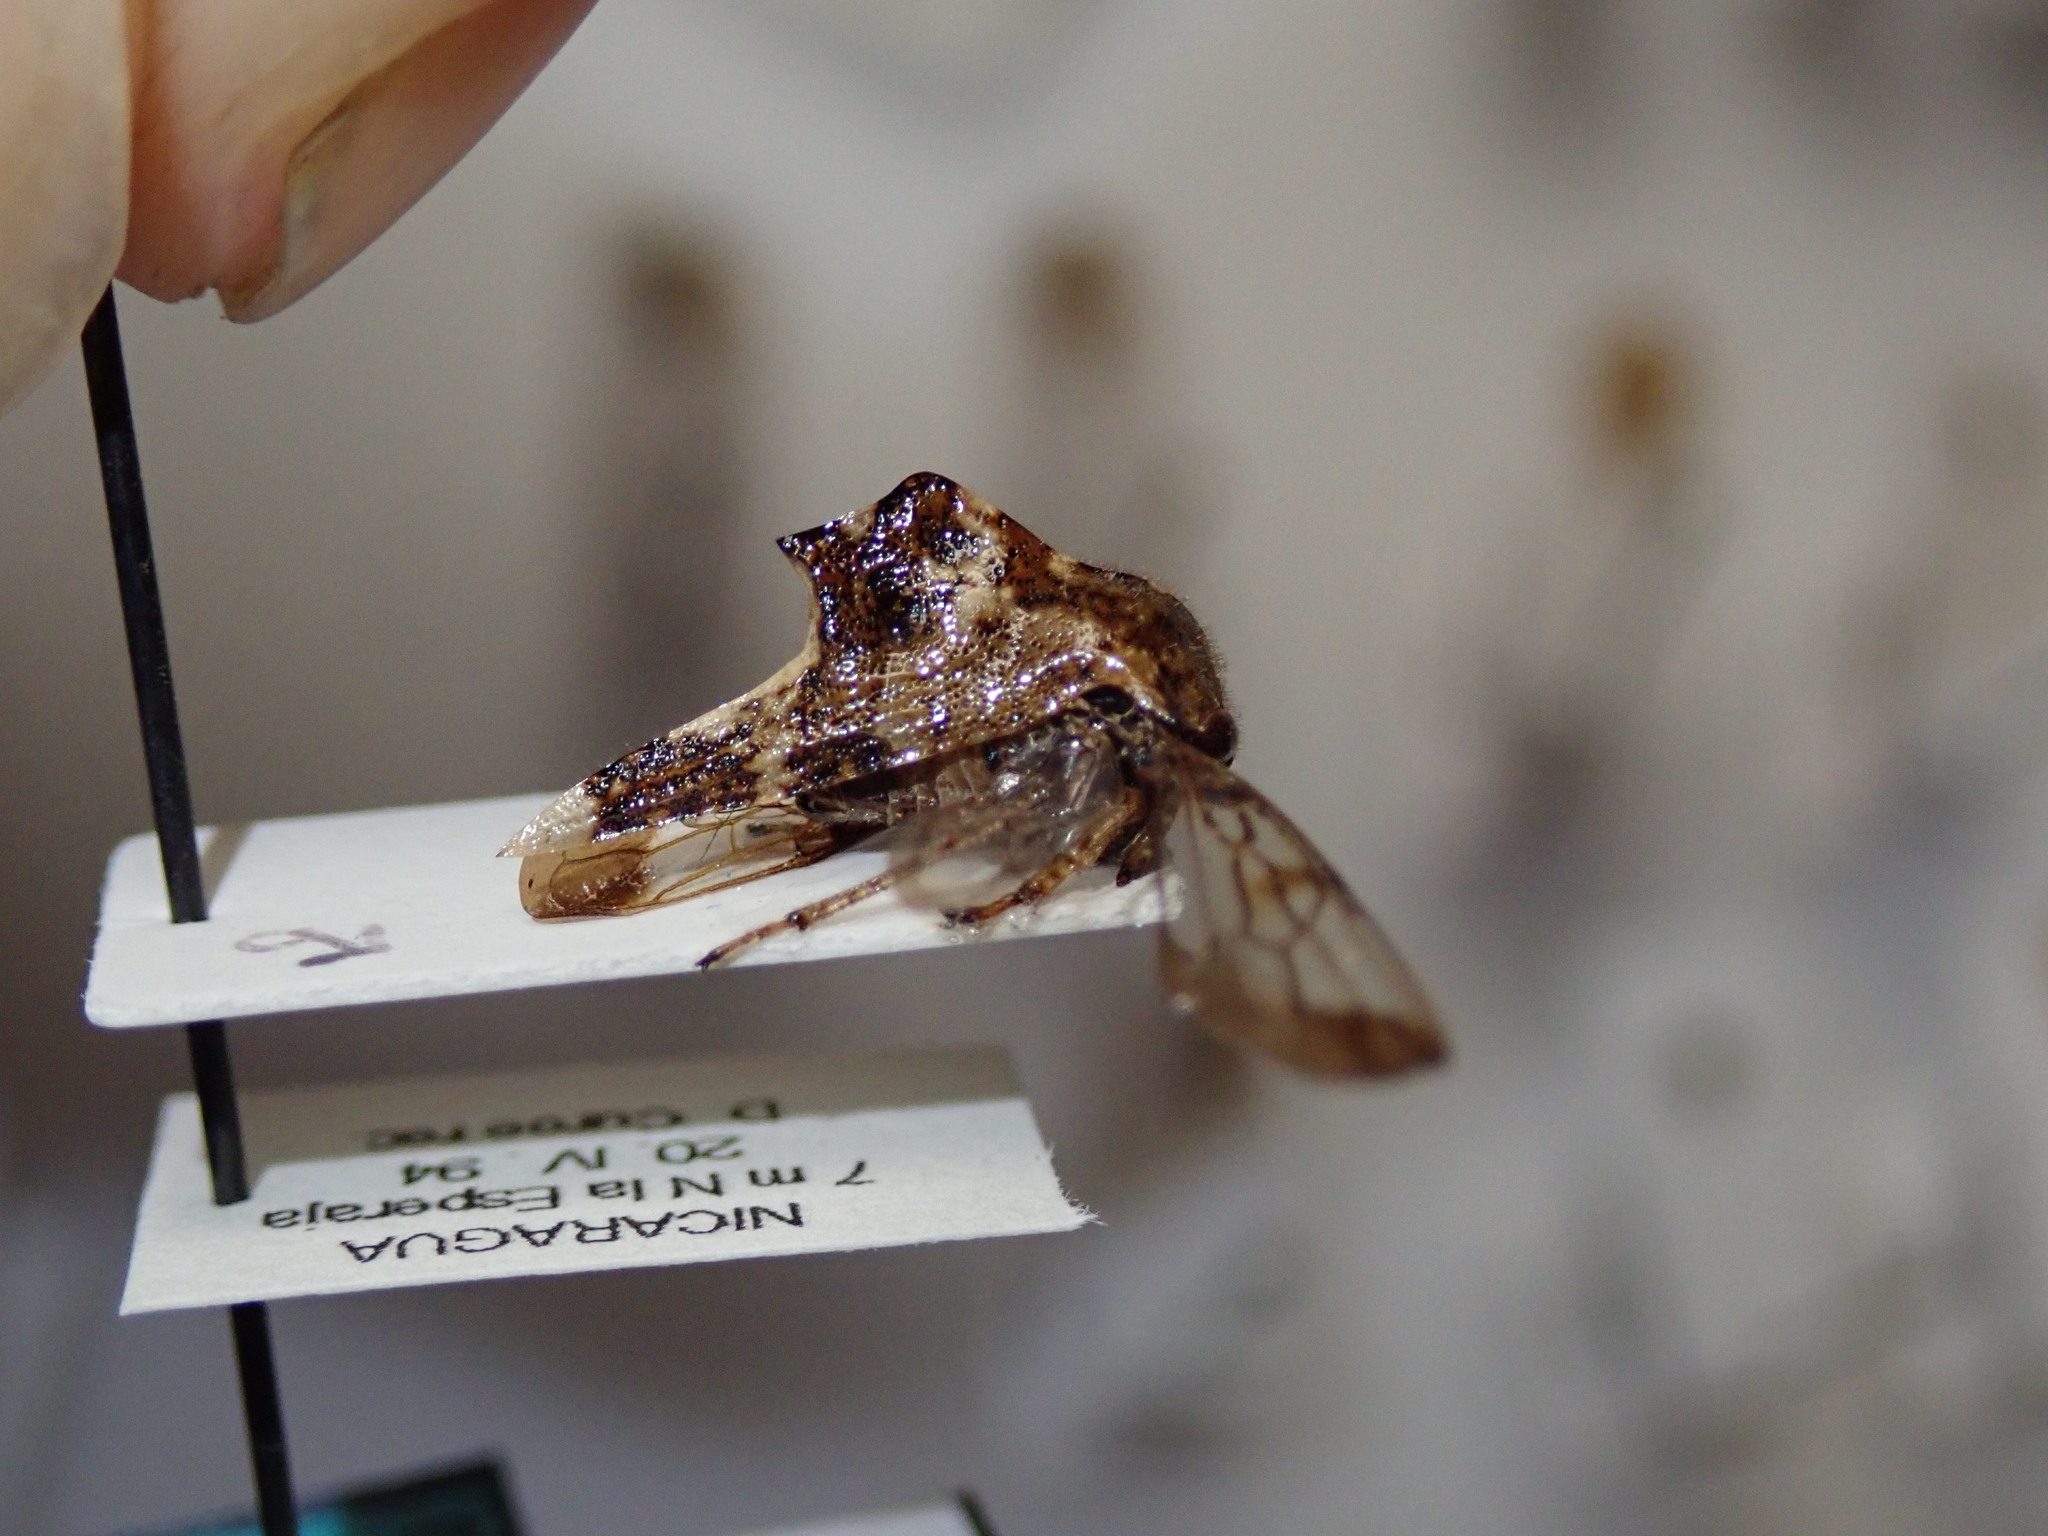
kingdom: Animalia
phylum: Arthropoda
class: Insecta
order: Hemiptera
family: Membracidae
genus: Telamona
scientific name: Telamona salvini
